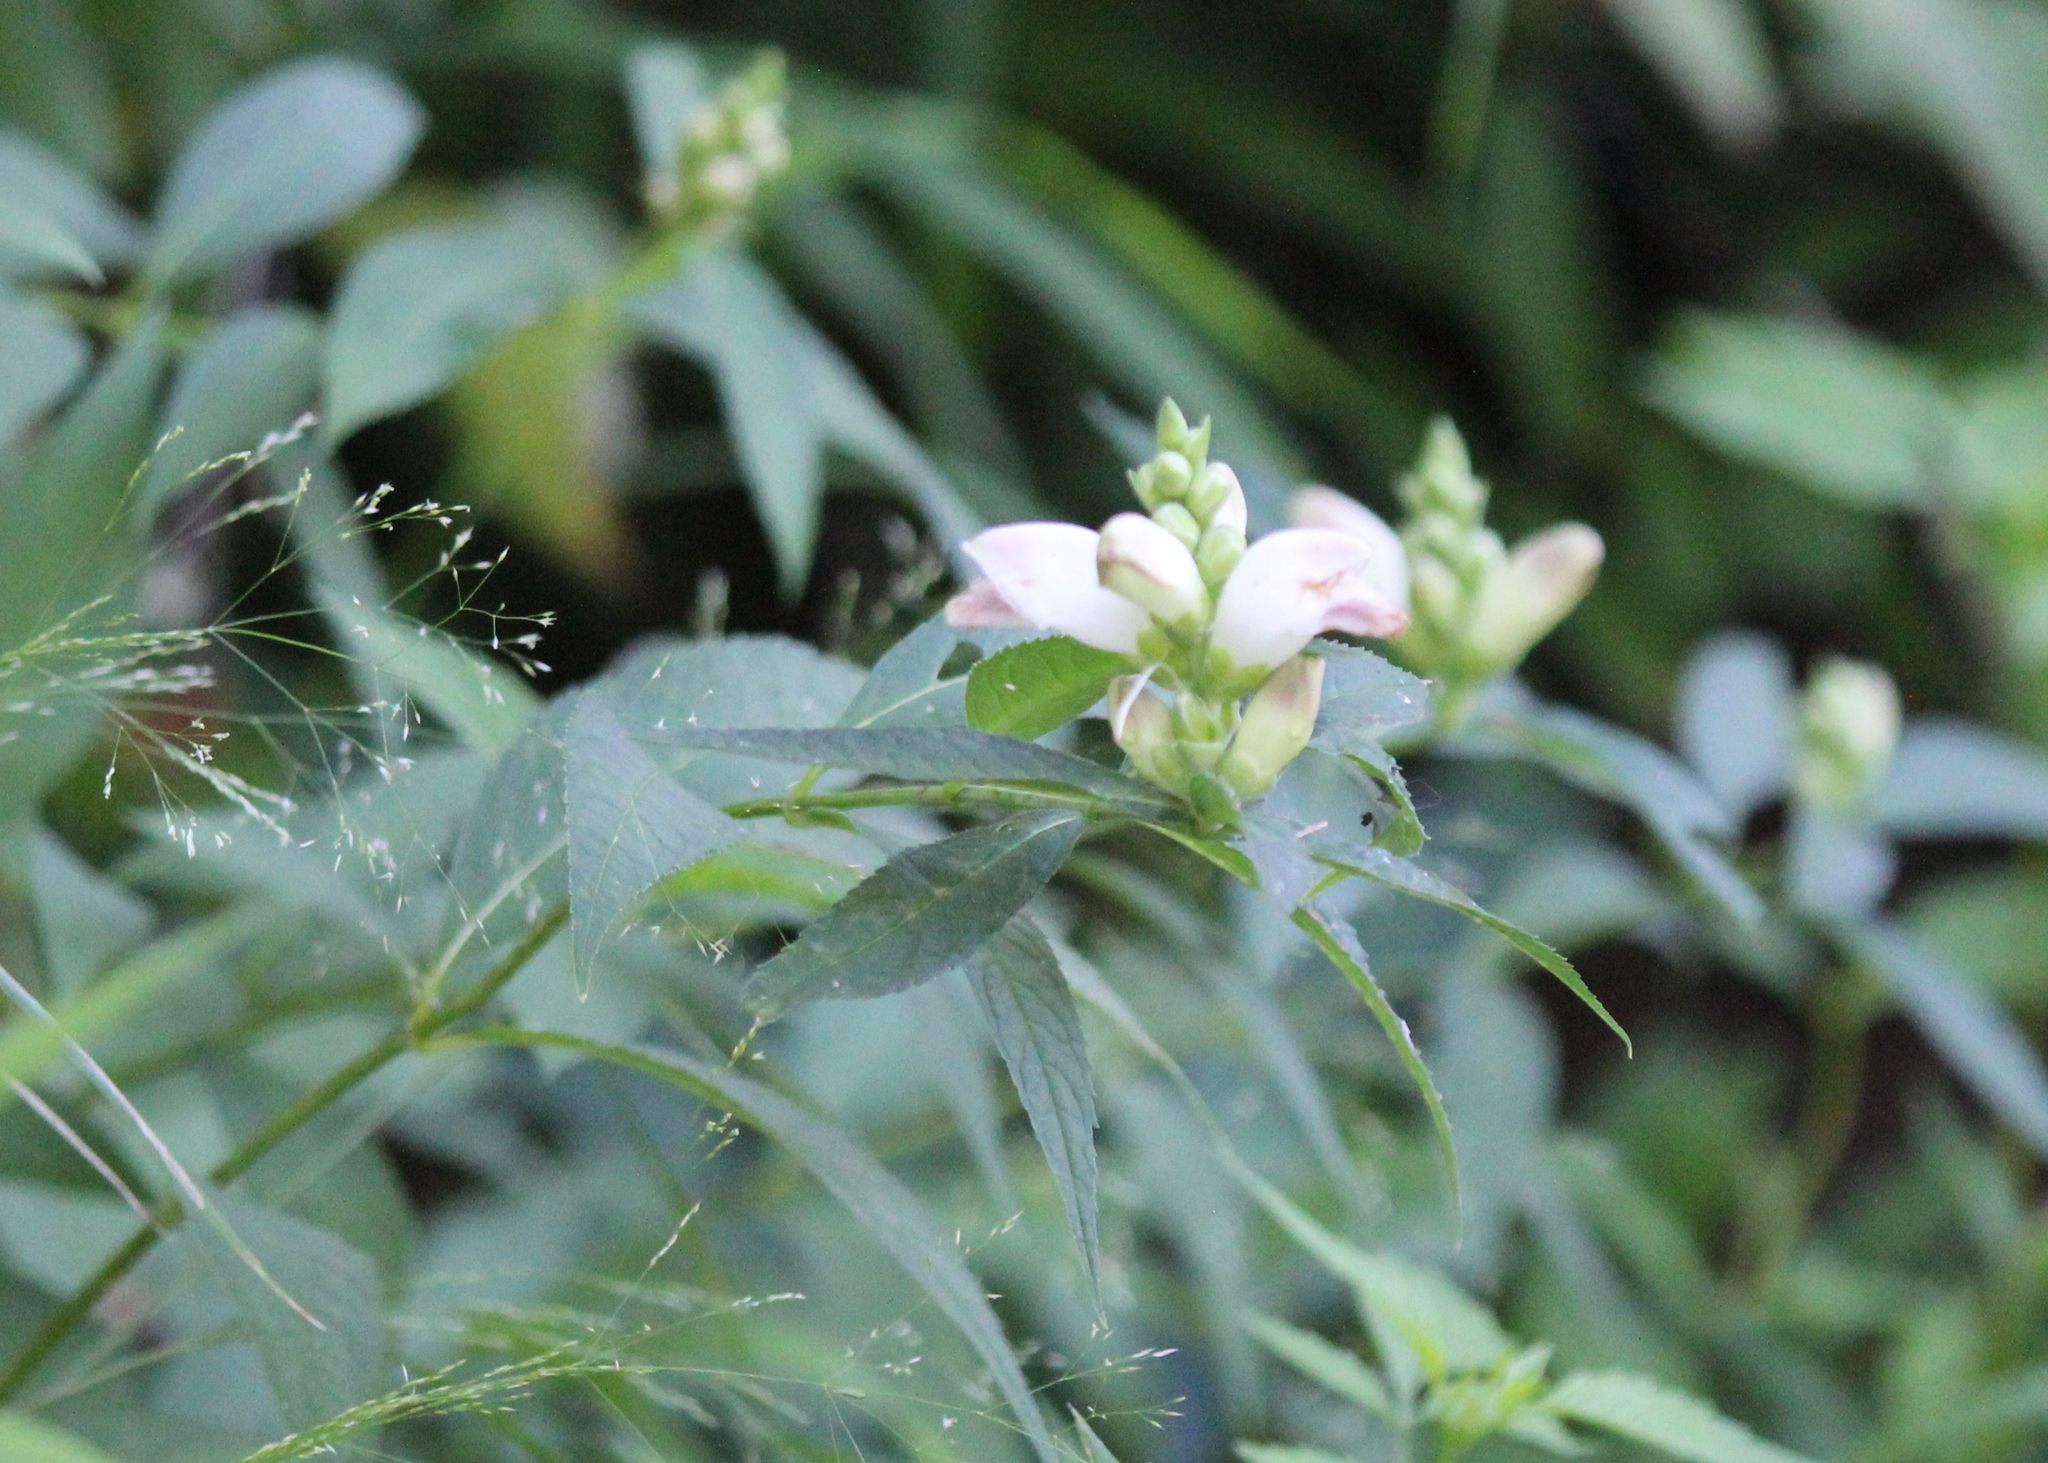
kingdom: Plantae
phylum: Tracheophyta
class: Magnoliopsida
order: Lamiales
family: Plantaginaceae
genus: Chelone
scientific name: Chelone glabra
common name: Snakehead
